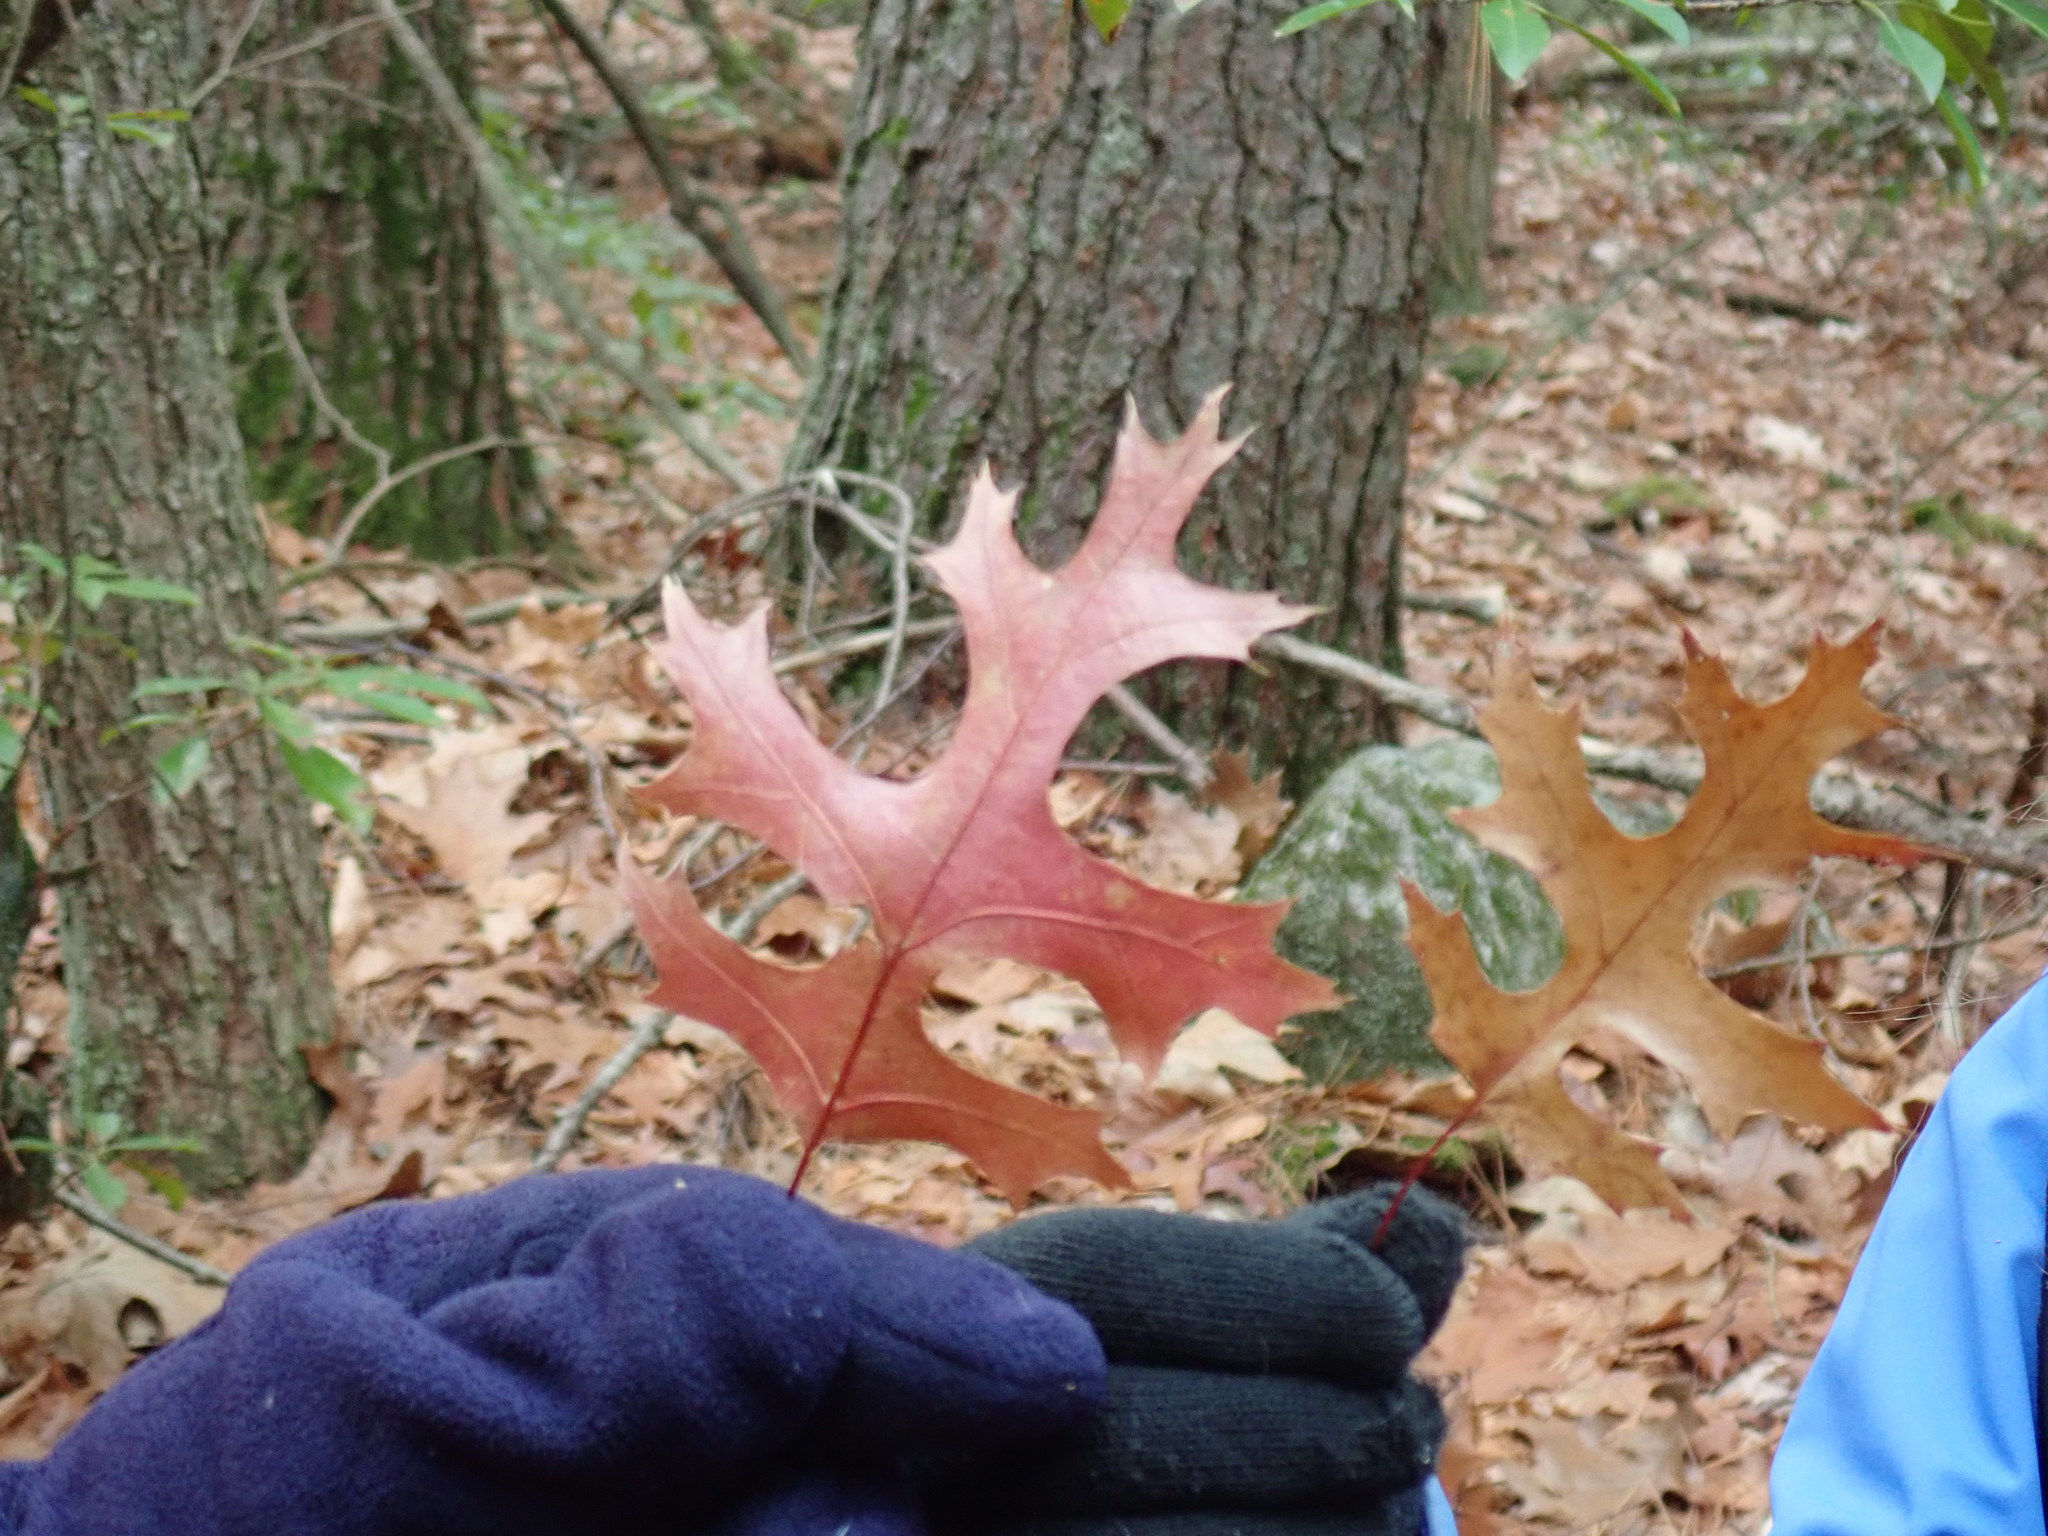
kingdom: Plantae
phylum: Tracheophyta
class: Magnoliopsida
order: Fagales
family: Fagaceae
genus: Quercus
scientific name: Quercus coccinea
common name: Scarlet oak
